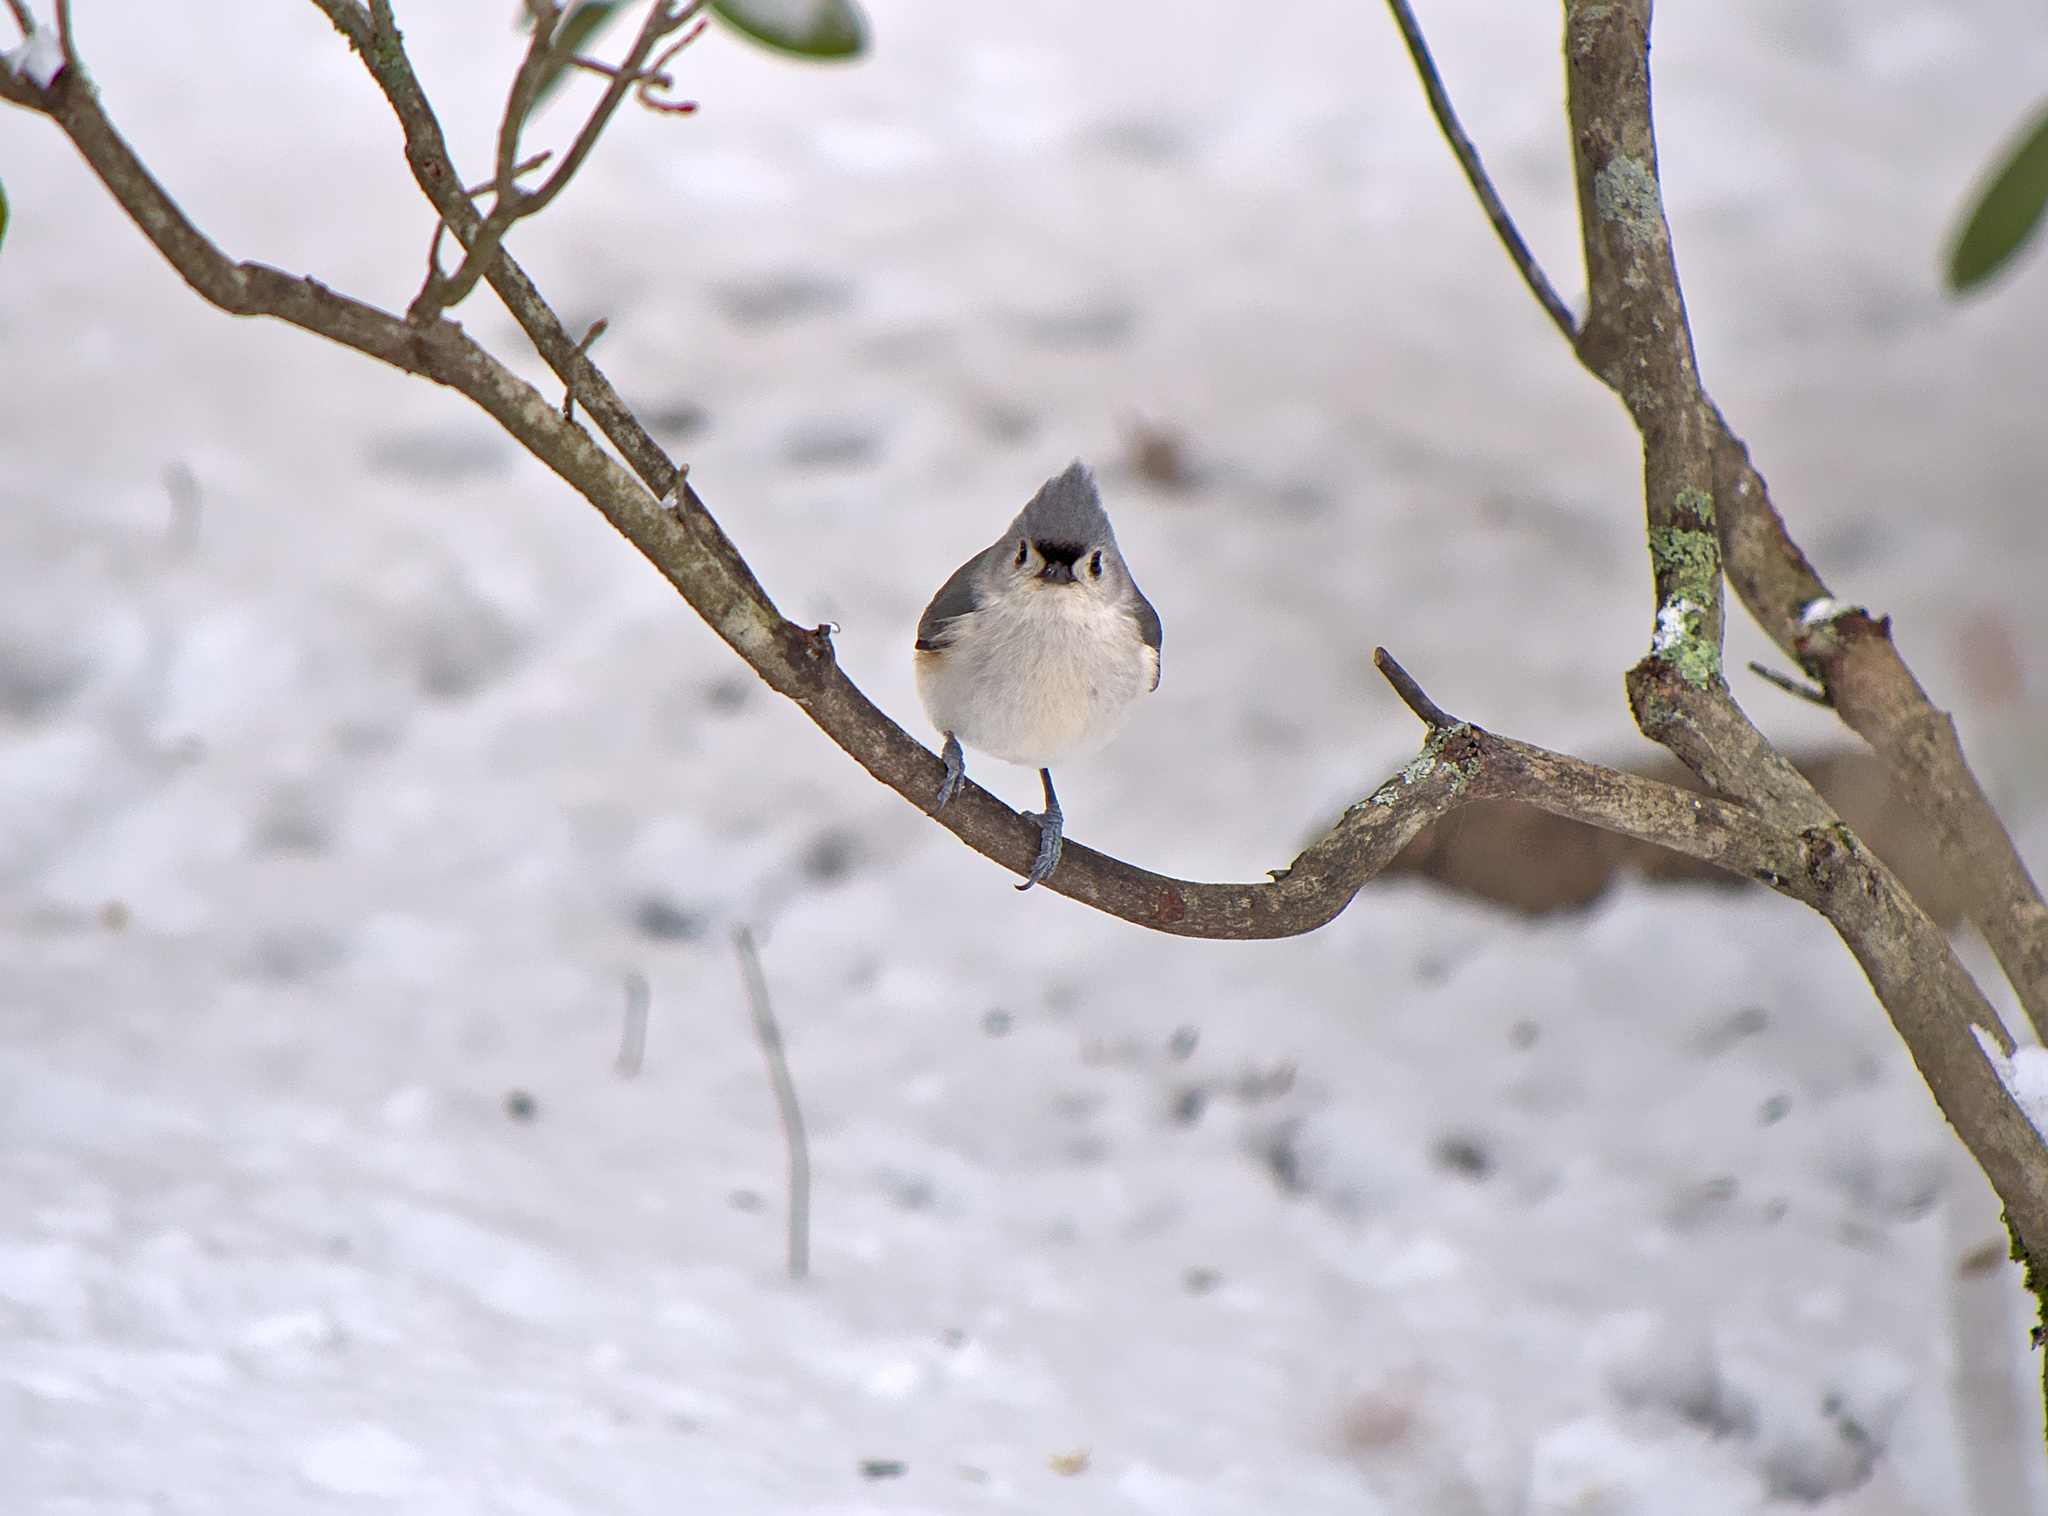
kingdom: Animalia
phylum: Chordata
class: Aves
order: Passeriformes
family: Paridae
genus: Baeolophus
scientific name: Baeolophus bicolor
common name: Tufted titmouse
